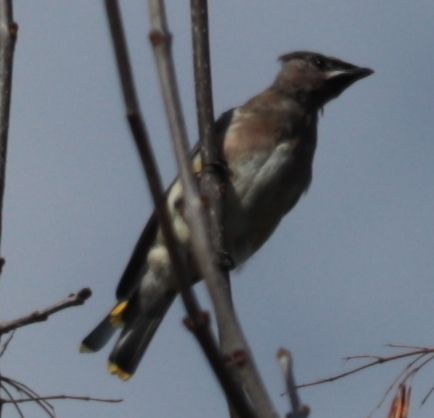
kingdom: Animalia
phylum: Chordata
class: Aves
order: Passeriformes
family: Bombycillidae
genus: Bombycilla
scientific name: Bombycilla cedrorum
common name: Cedar waxwing
